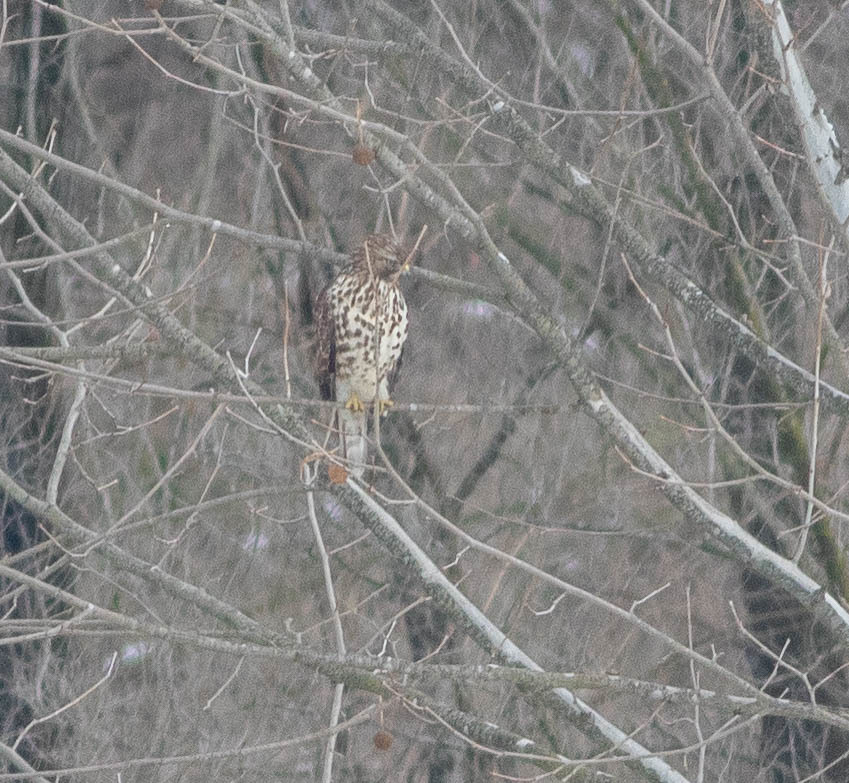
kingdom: Animalia
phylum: Chordata
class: Aves
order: Accipitriformes
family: Accipitridae
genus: Buteo
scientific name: Buteo lineatus
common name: Red-shouldered hawk
